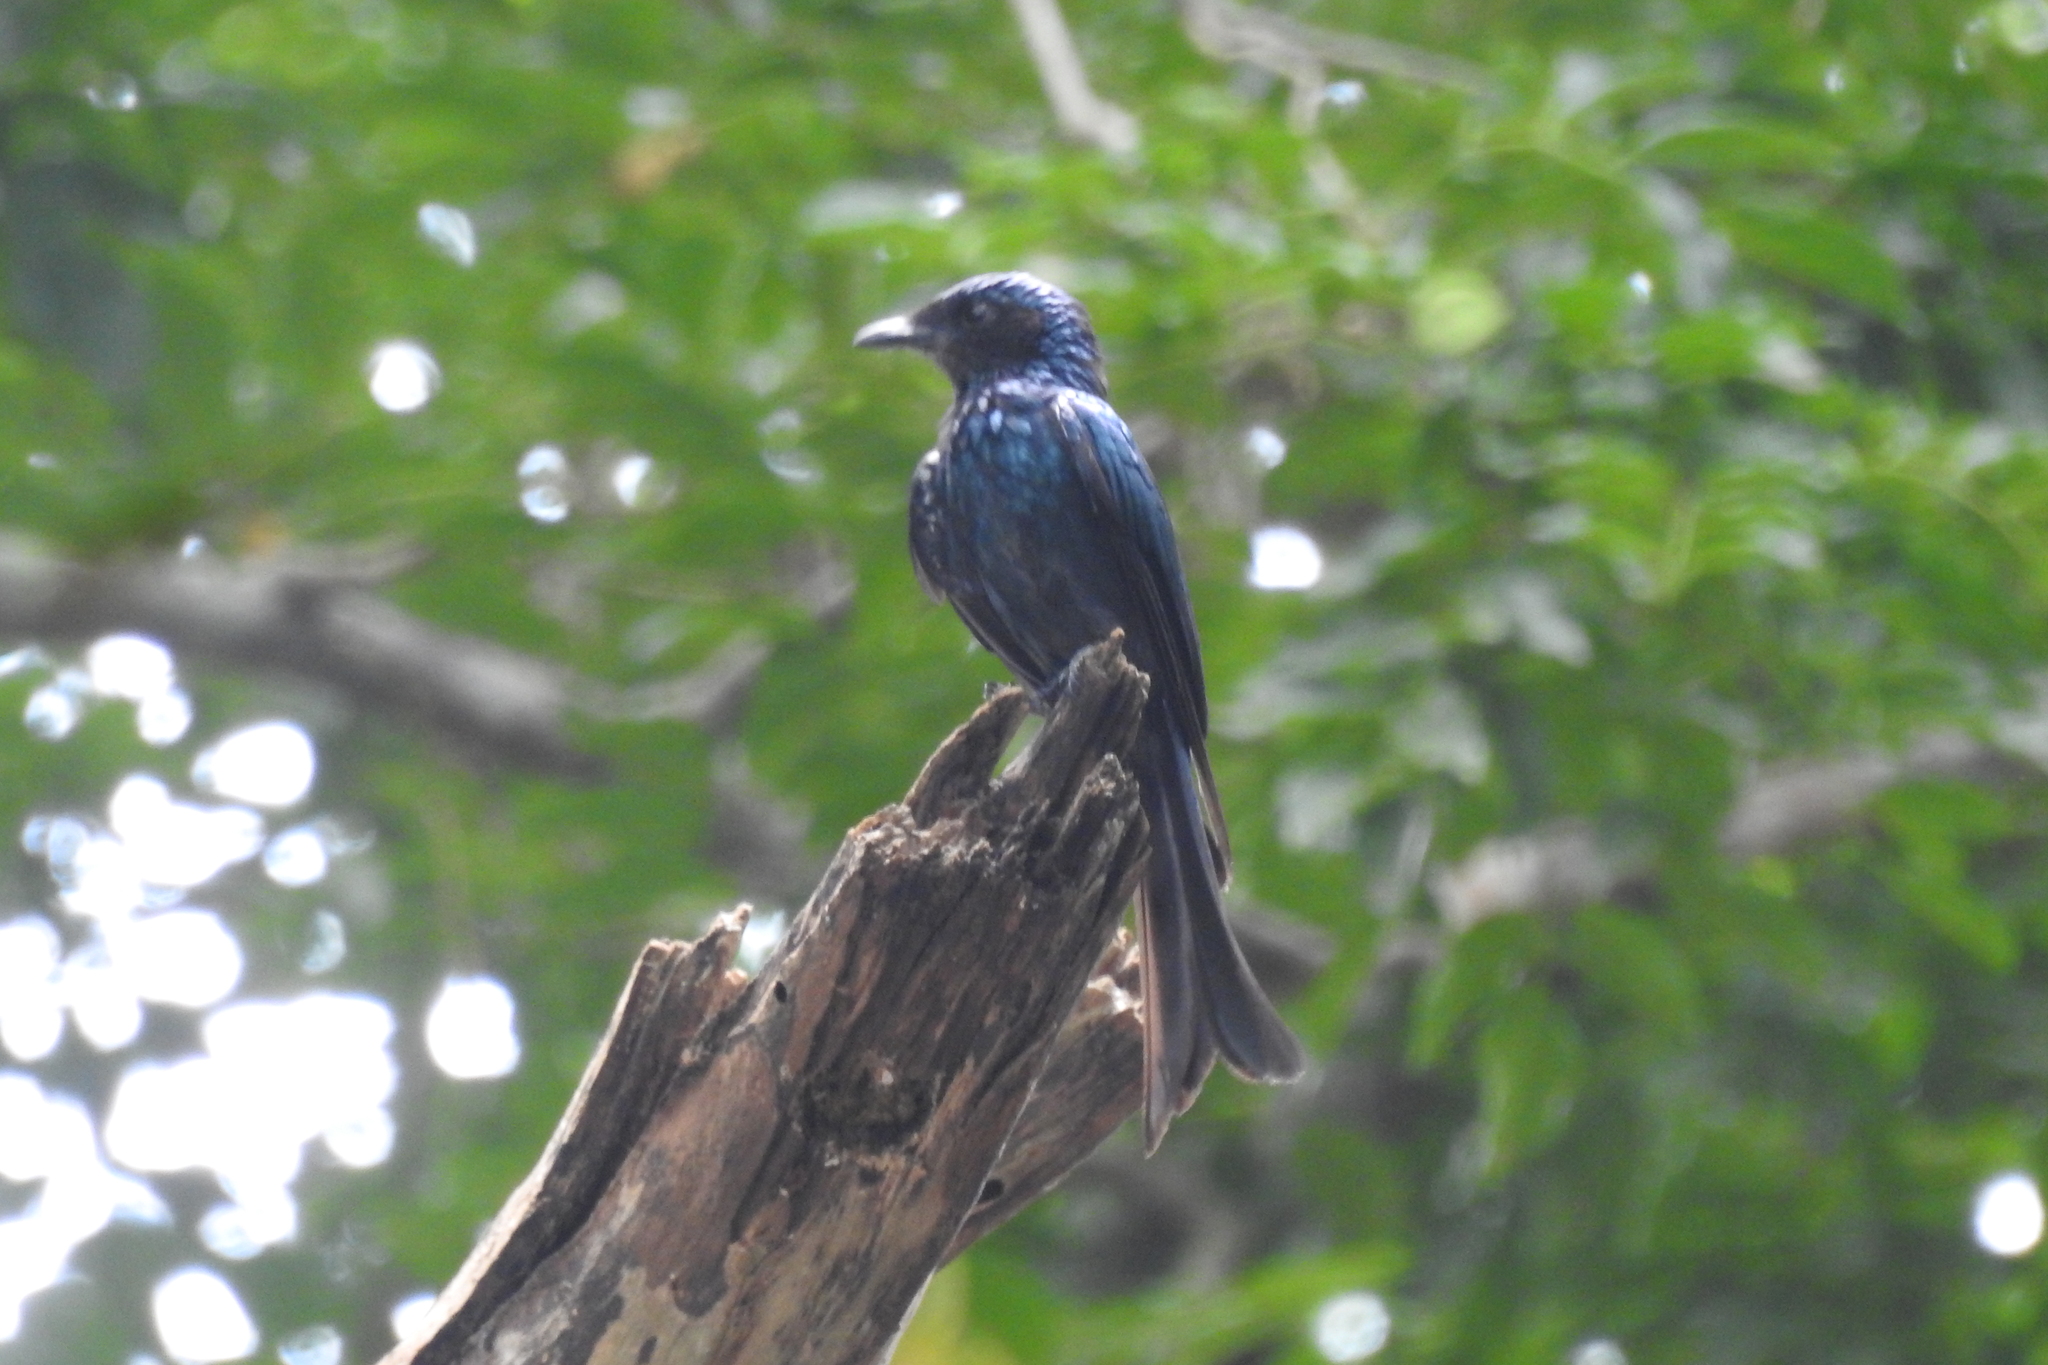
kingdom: Animalia
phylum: Chordata
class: Aves
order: Passeriformes
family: Dicruridae
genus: Dicrurus
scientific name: Dicrurus aeneus
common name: Bronzed drongo
